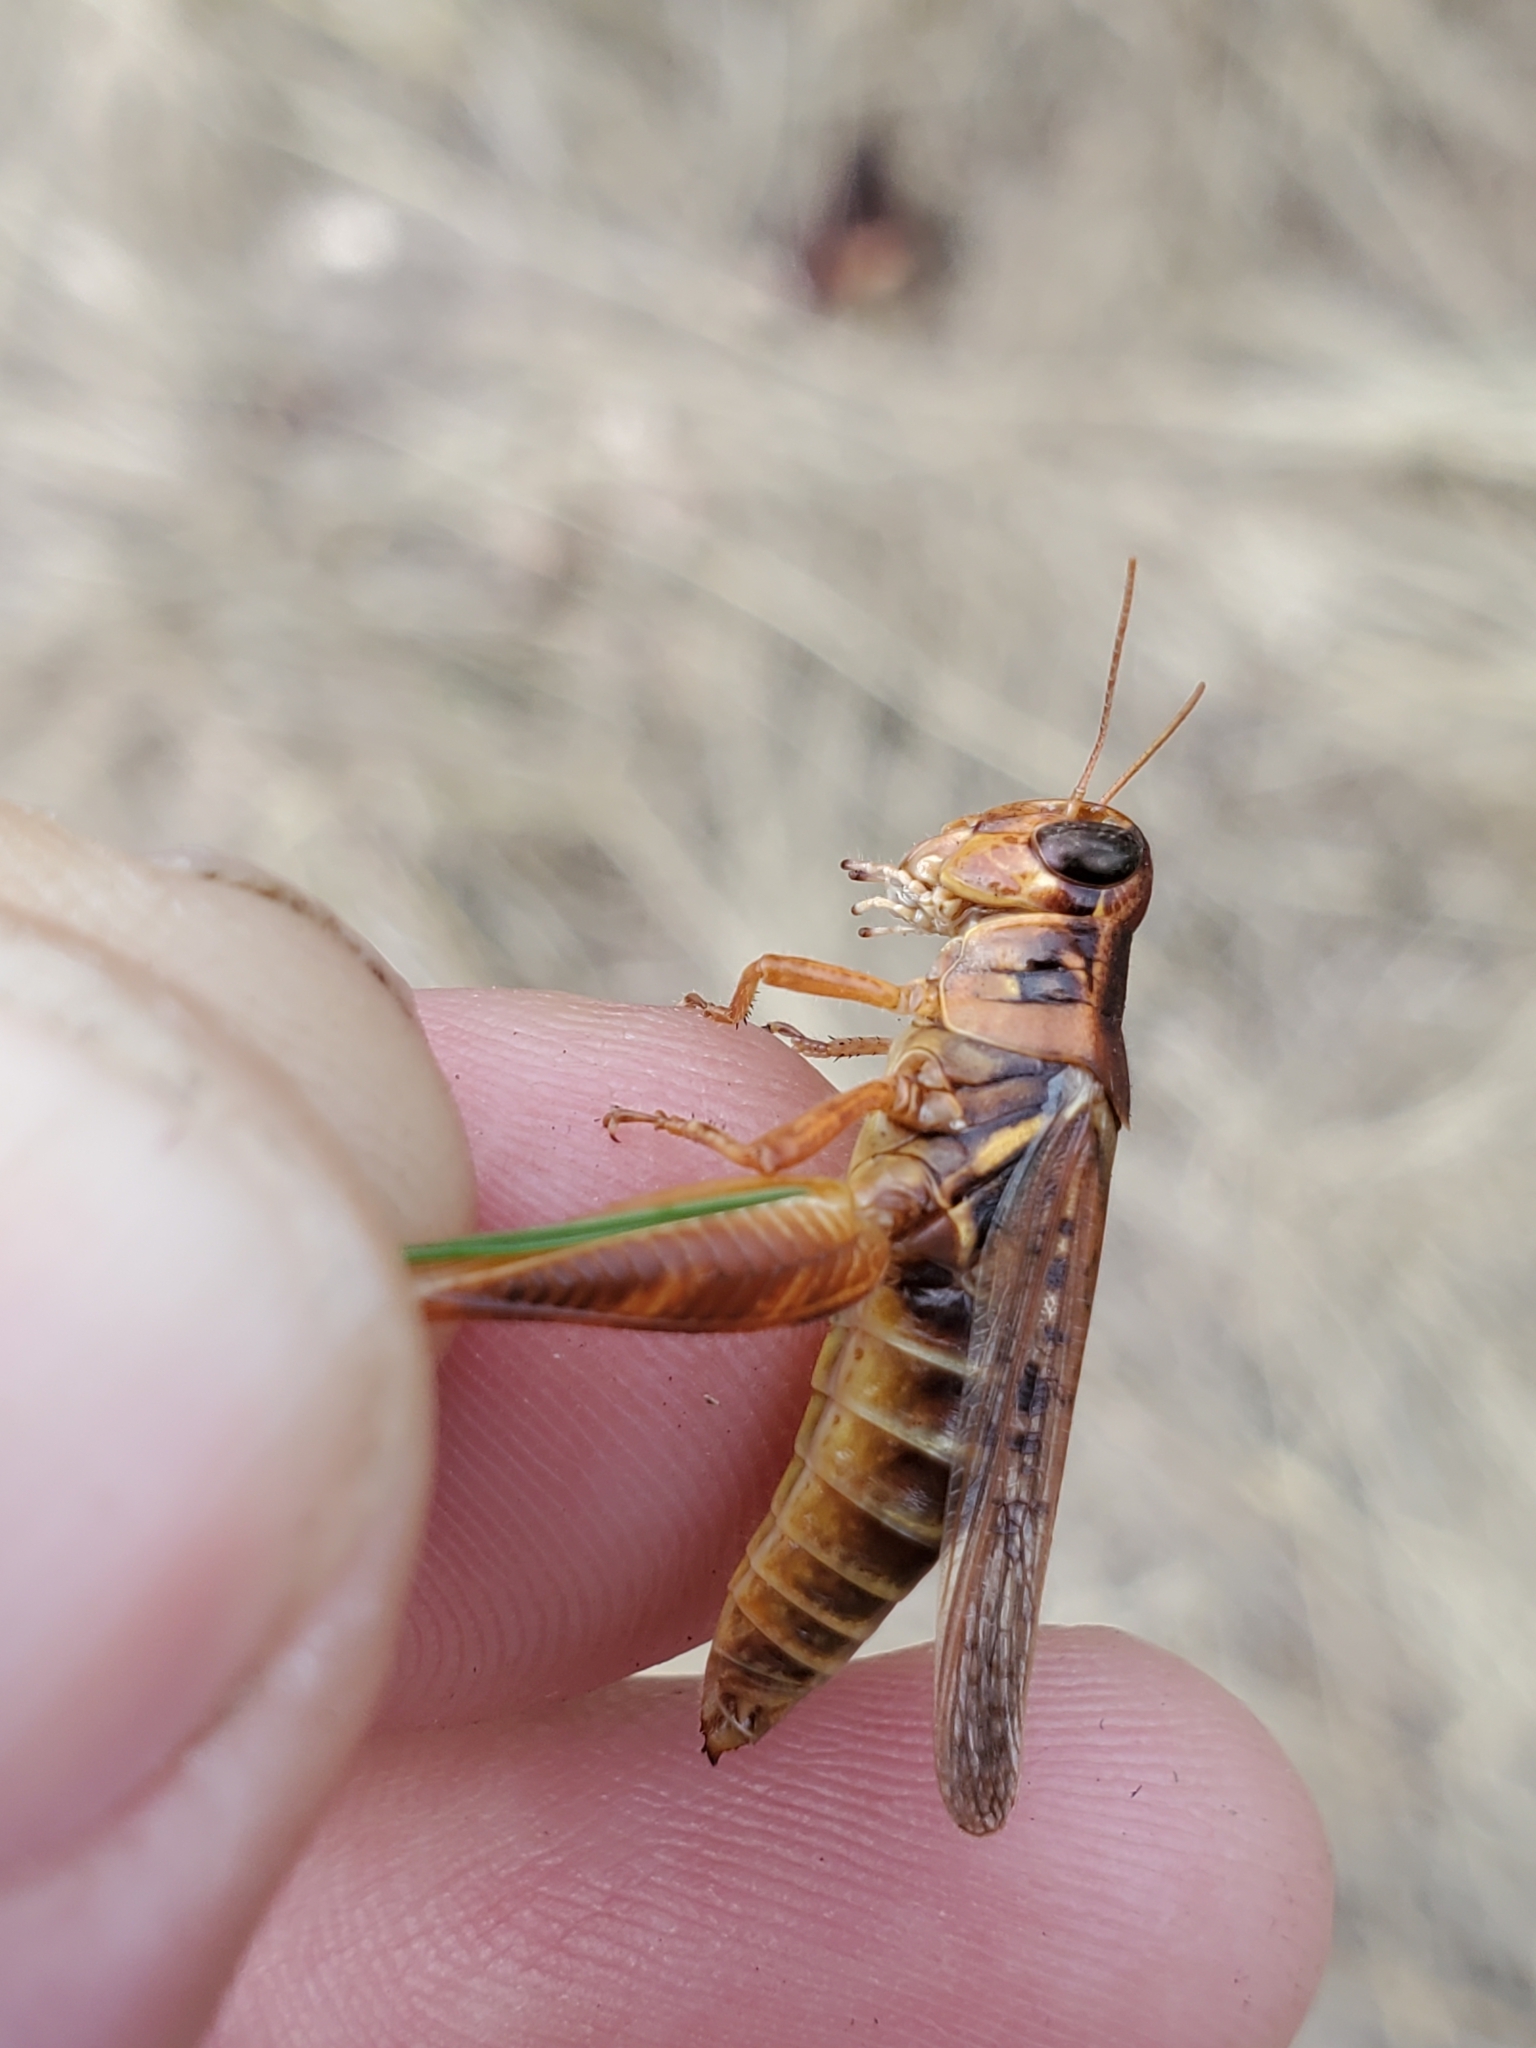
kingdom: Animalia
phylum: Arthropoda
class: Insecta
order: Orthoptera
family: Acrididae
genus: Melanoplus
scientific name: Melanoplus sanguinipes
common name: Migratory grasshopper
